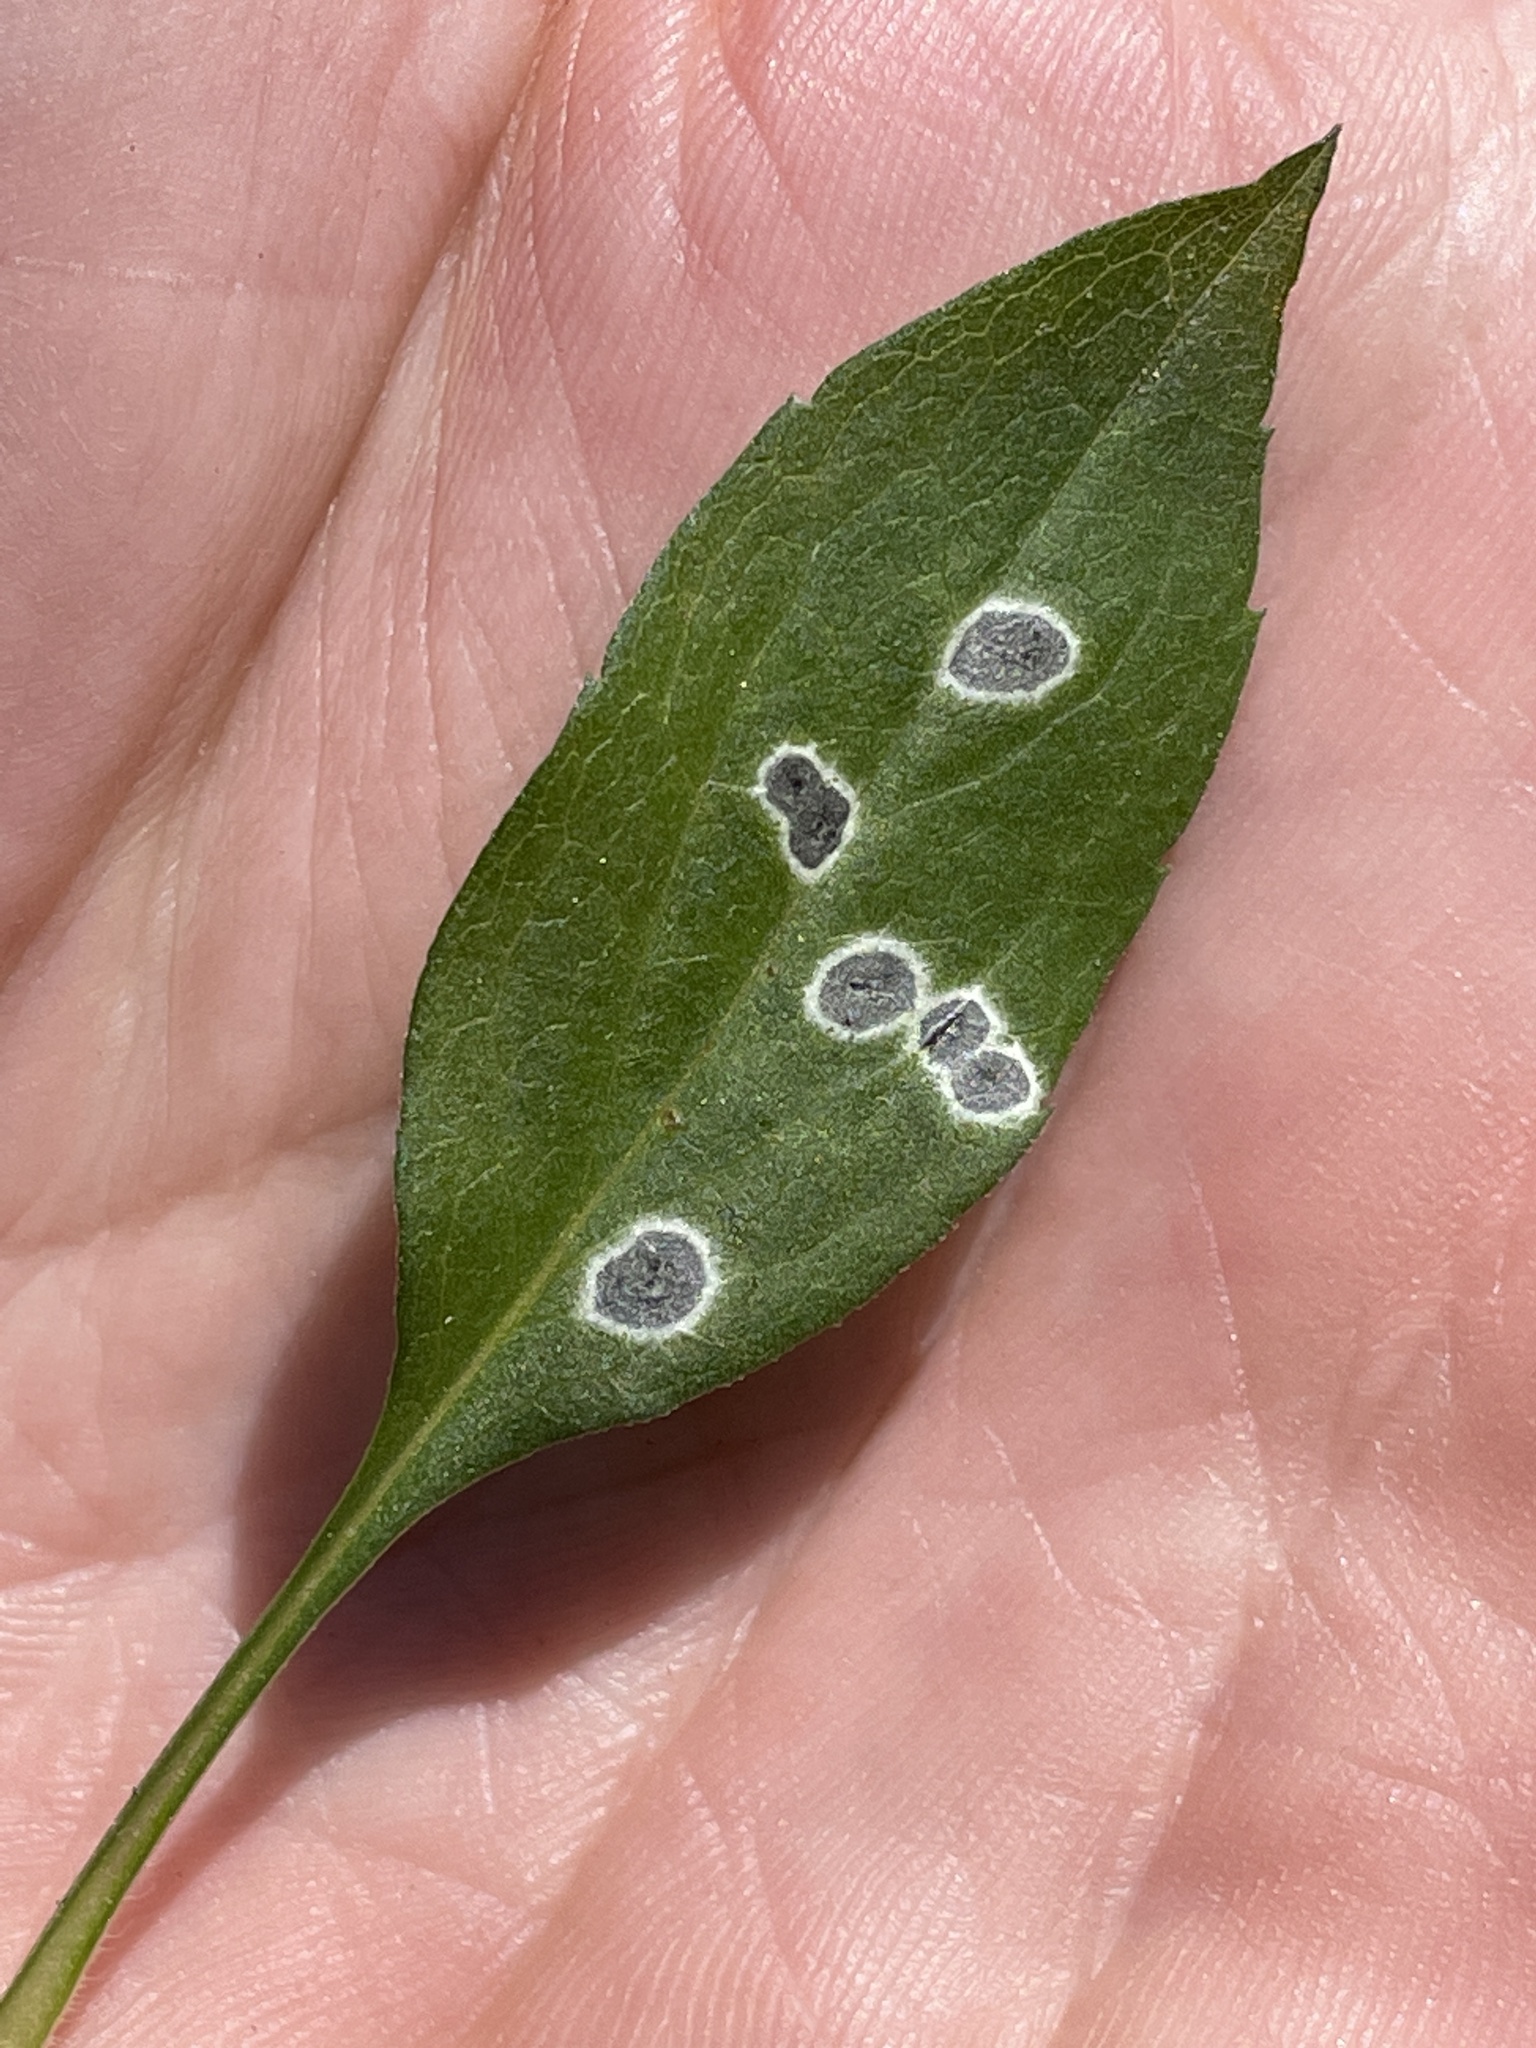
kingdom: Animalia
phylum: Arthropoda
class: Insecta
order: Diptera
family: Cecidomyiidae
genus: Asteromyia
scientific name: Asteromyia carbonifera
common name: Carbonifera goldenrod gall midge
